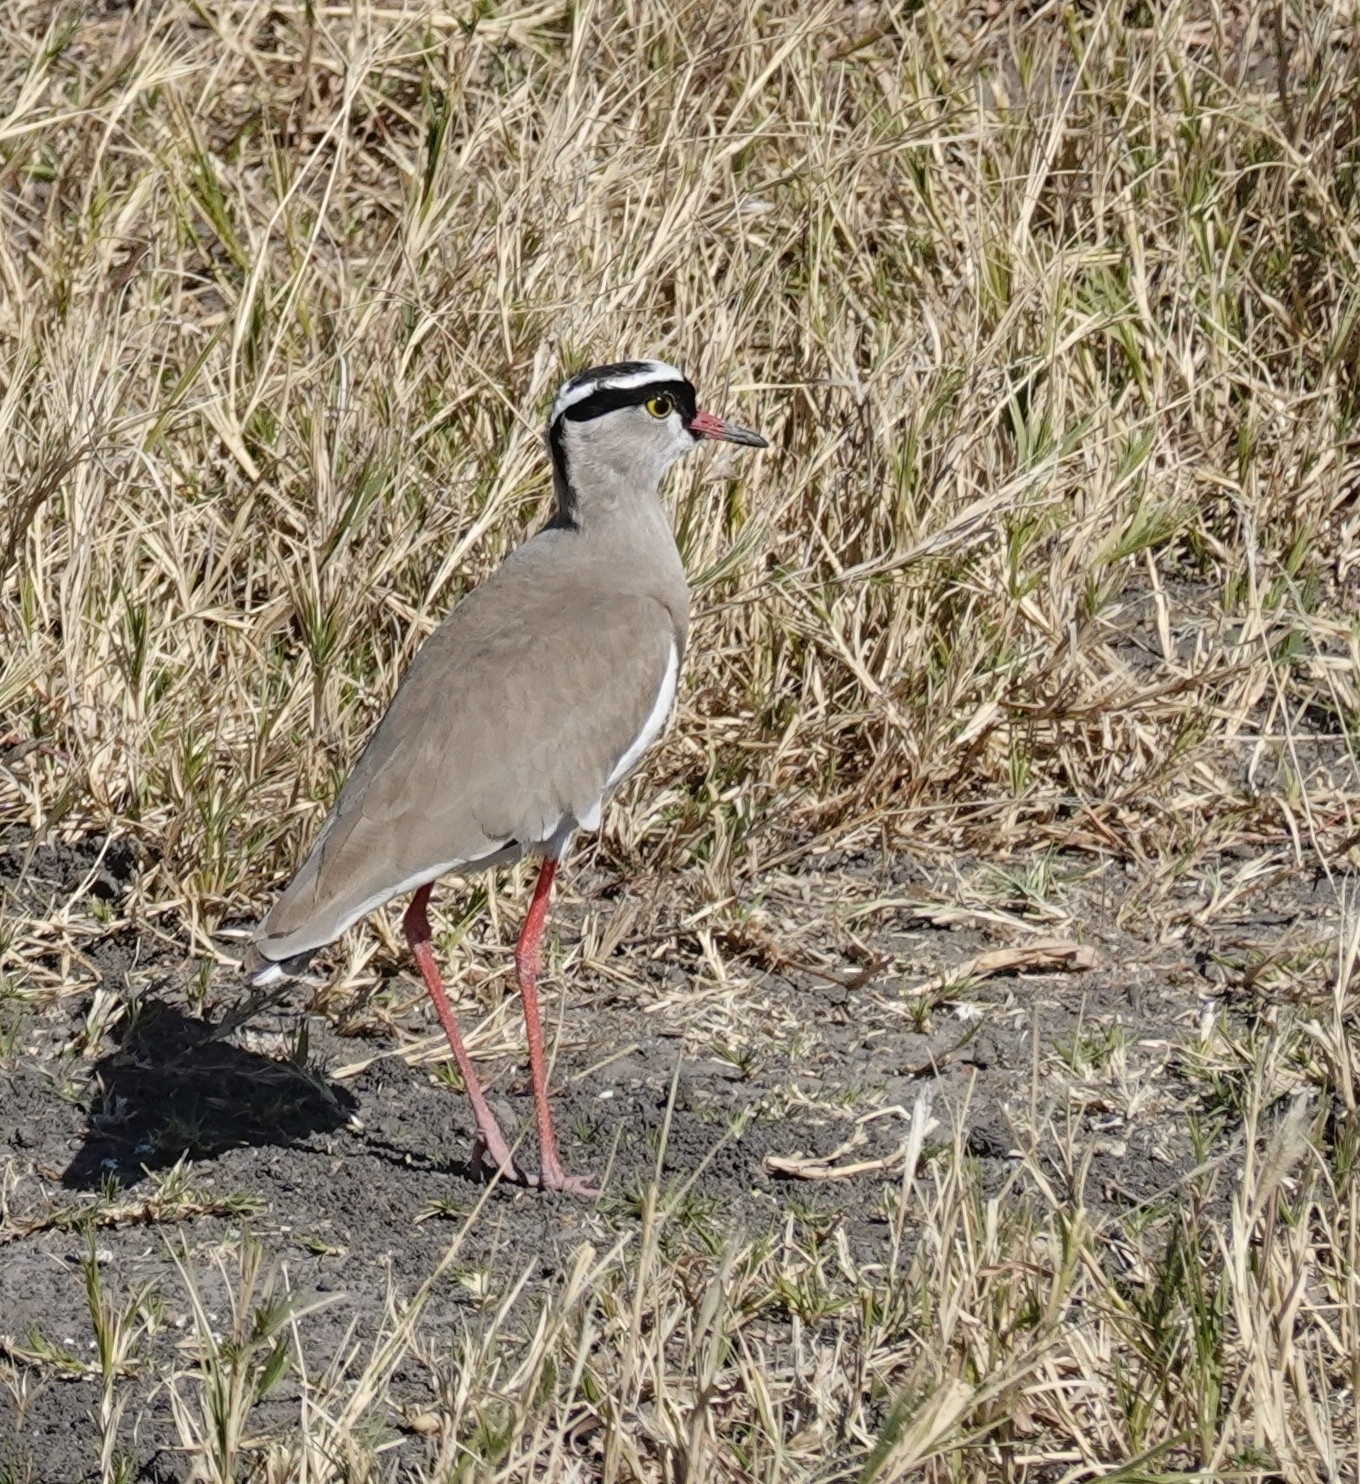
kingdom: Animalia
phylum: Chordata
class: Aves
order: Charadriiformes
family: Charadriidae
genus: Vanellus
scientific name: Vanellus coronatus
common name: Crowned lapwing
